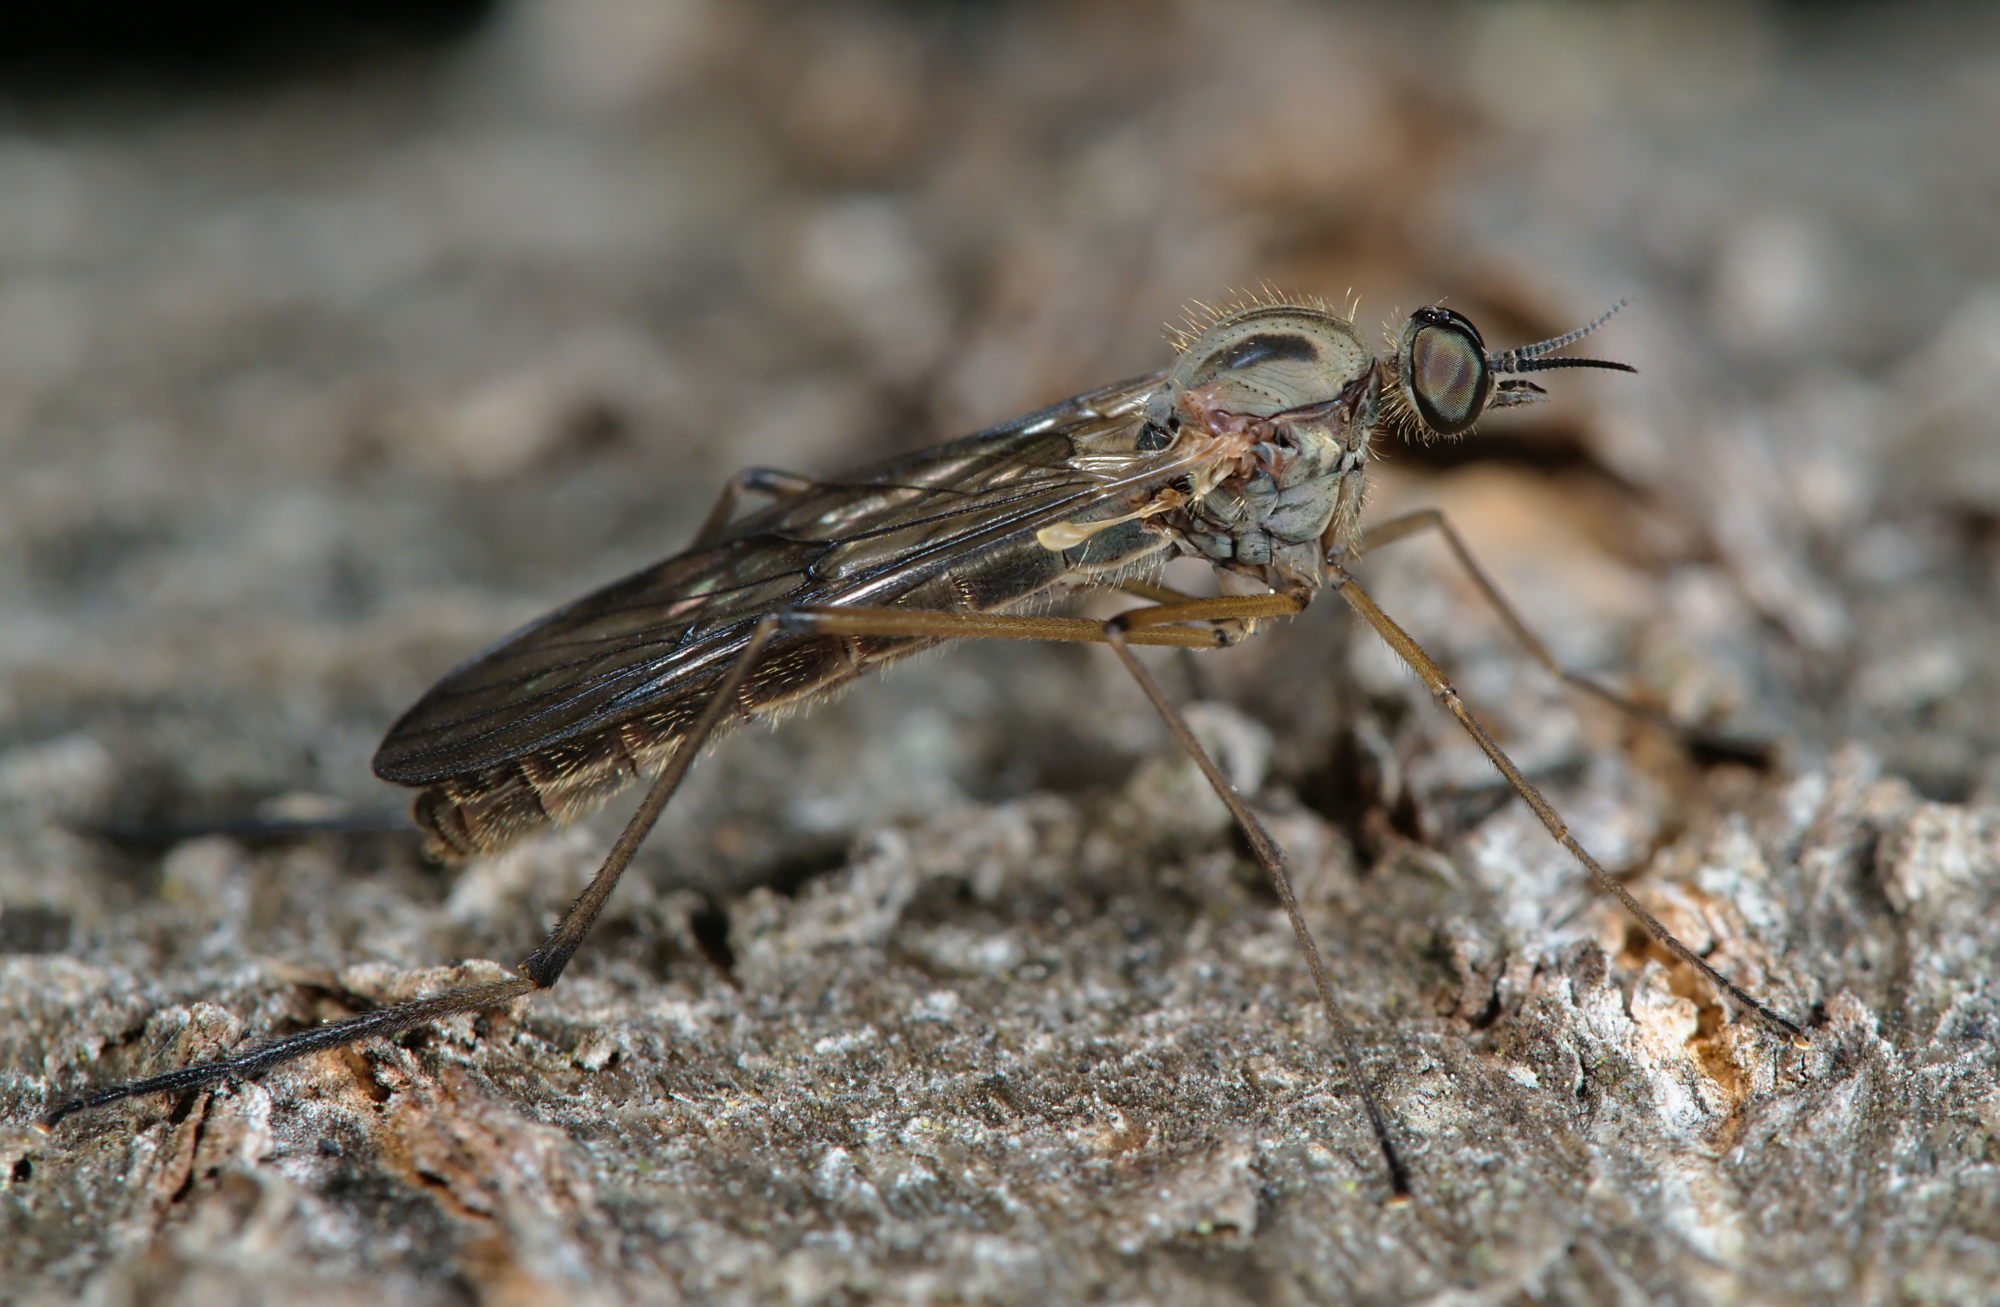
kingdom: Animalia
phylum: Arthropoda
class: Insecta
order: Diptera
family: Anisopodidae
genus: Sylvicola
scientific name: Sylvicola
